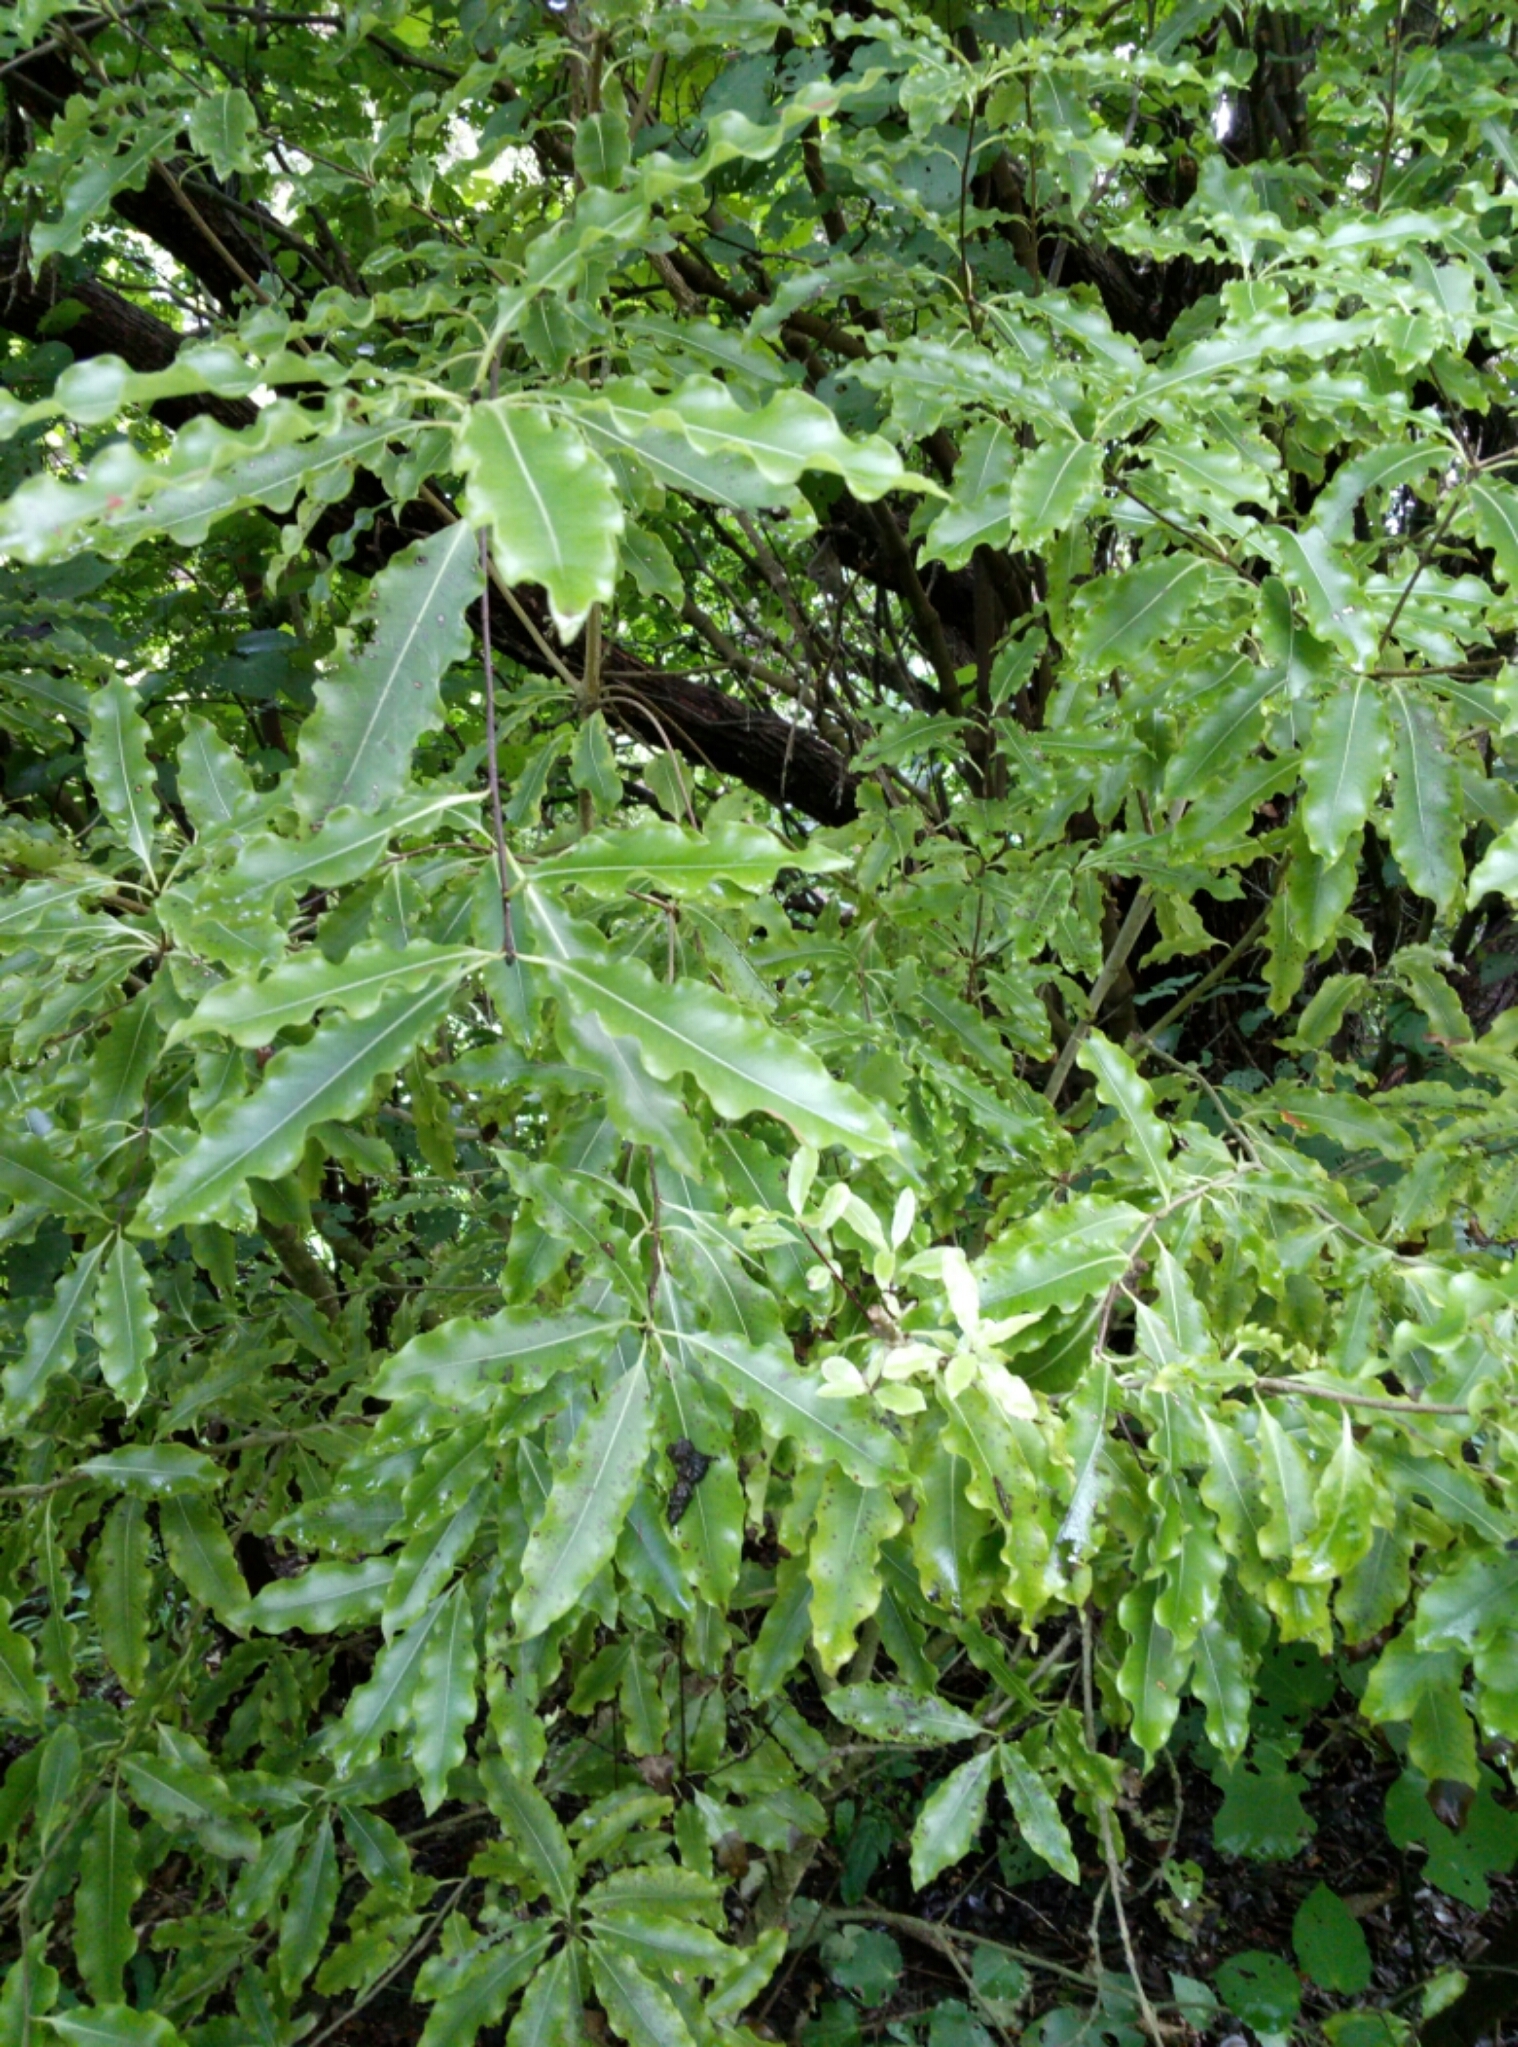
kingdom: Plantae
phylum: Tracheophyta
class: Magnoliopsida
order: Apiales
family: Pittosporaceae
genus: Pittosporum
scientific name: Pittosporum eugenioides
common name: Lemonwood
